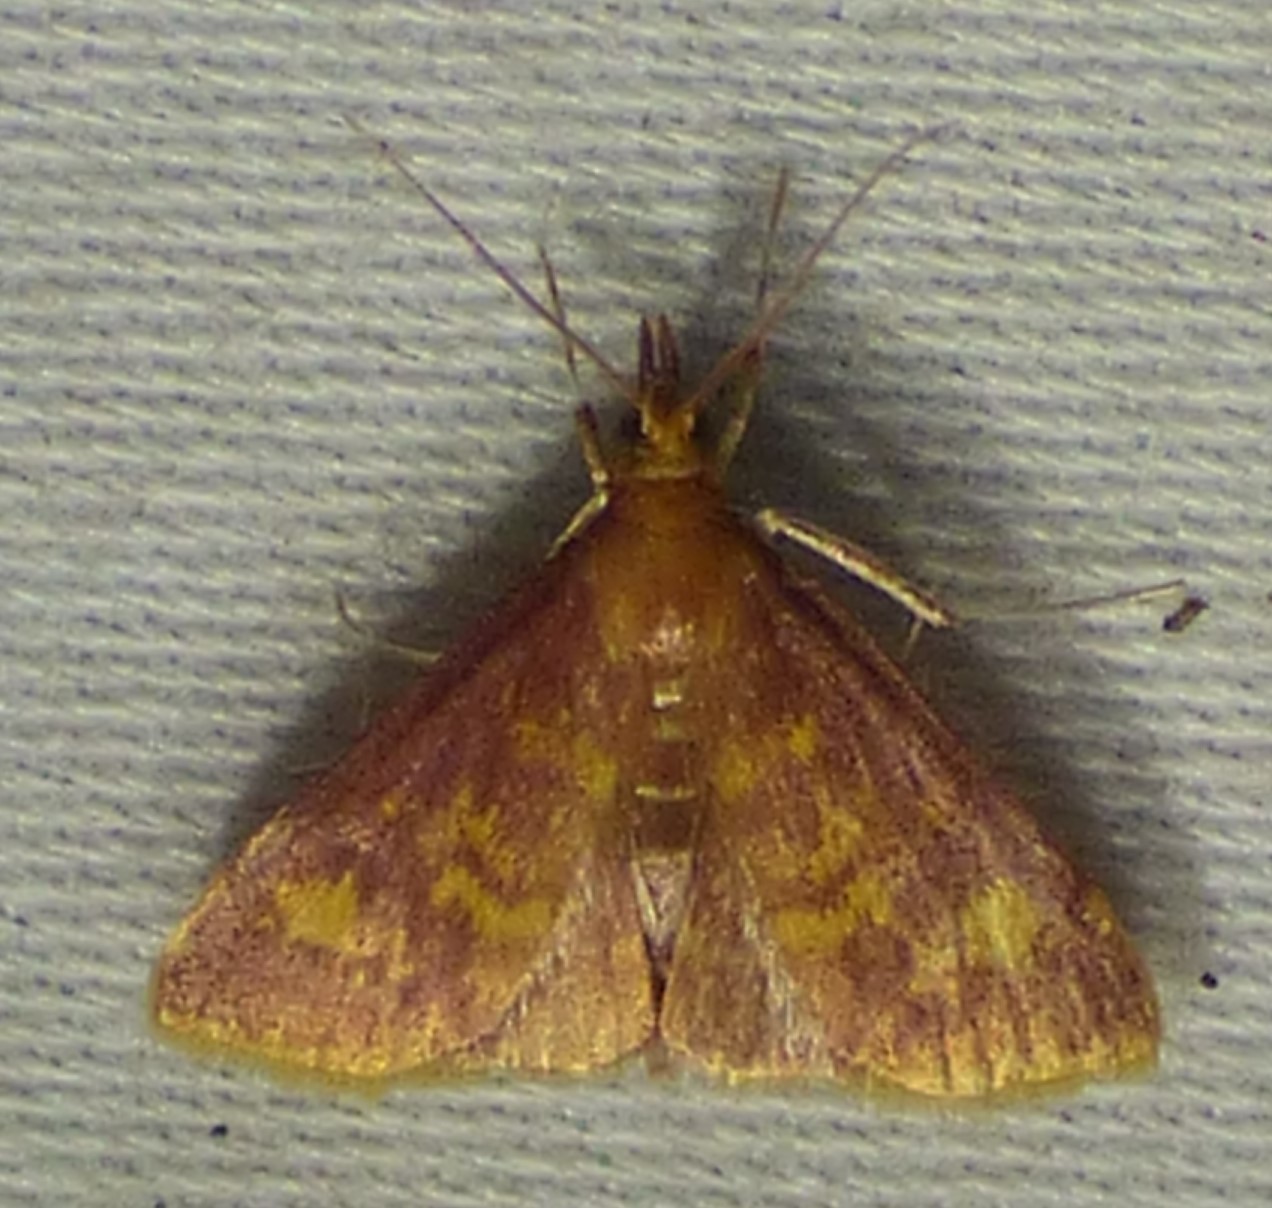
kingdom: Animalia
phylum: Arthropoda
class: Insecta
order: Lepidoptera
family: Crambidae
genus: Pyrausta
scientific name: Pyrausta acrionalis
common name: Mint-loving pyrausta moth
